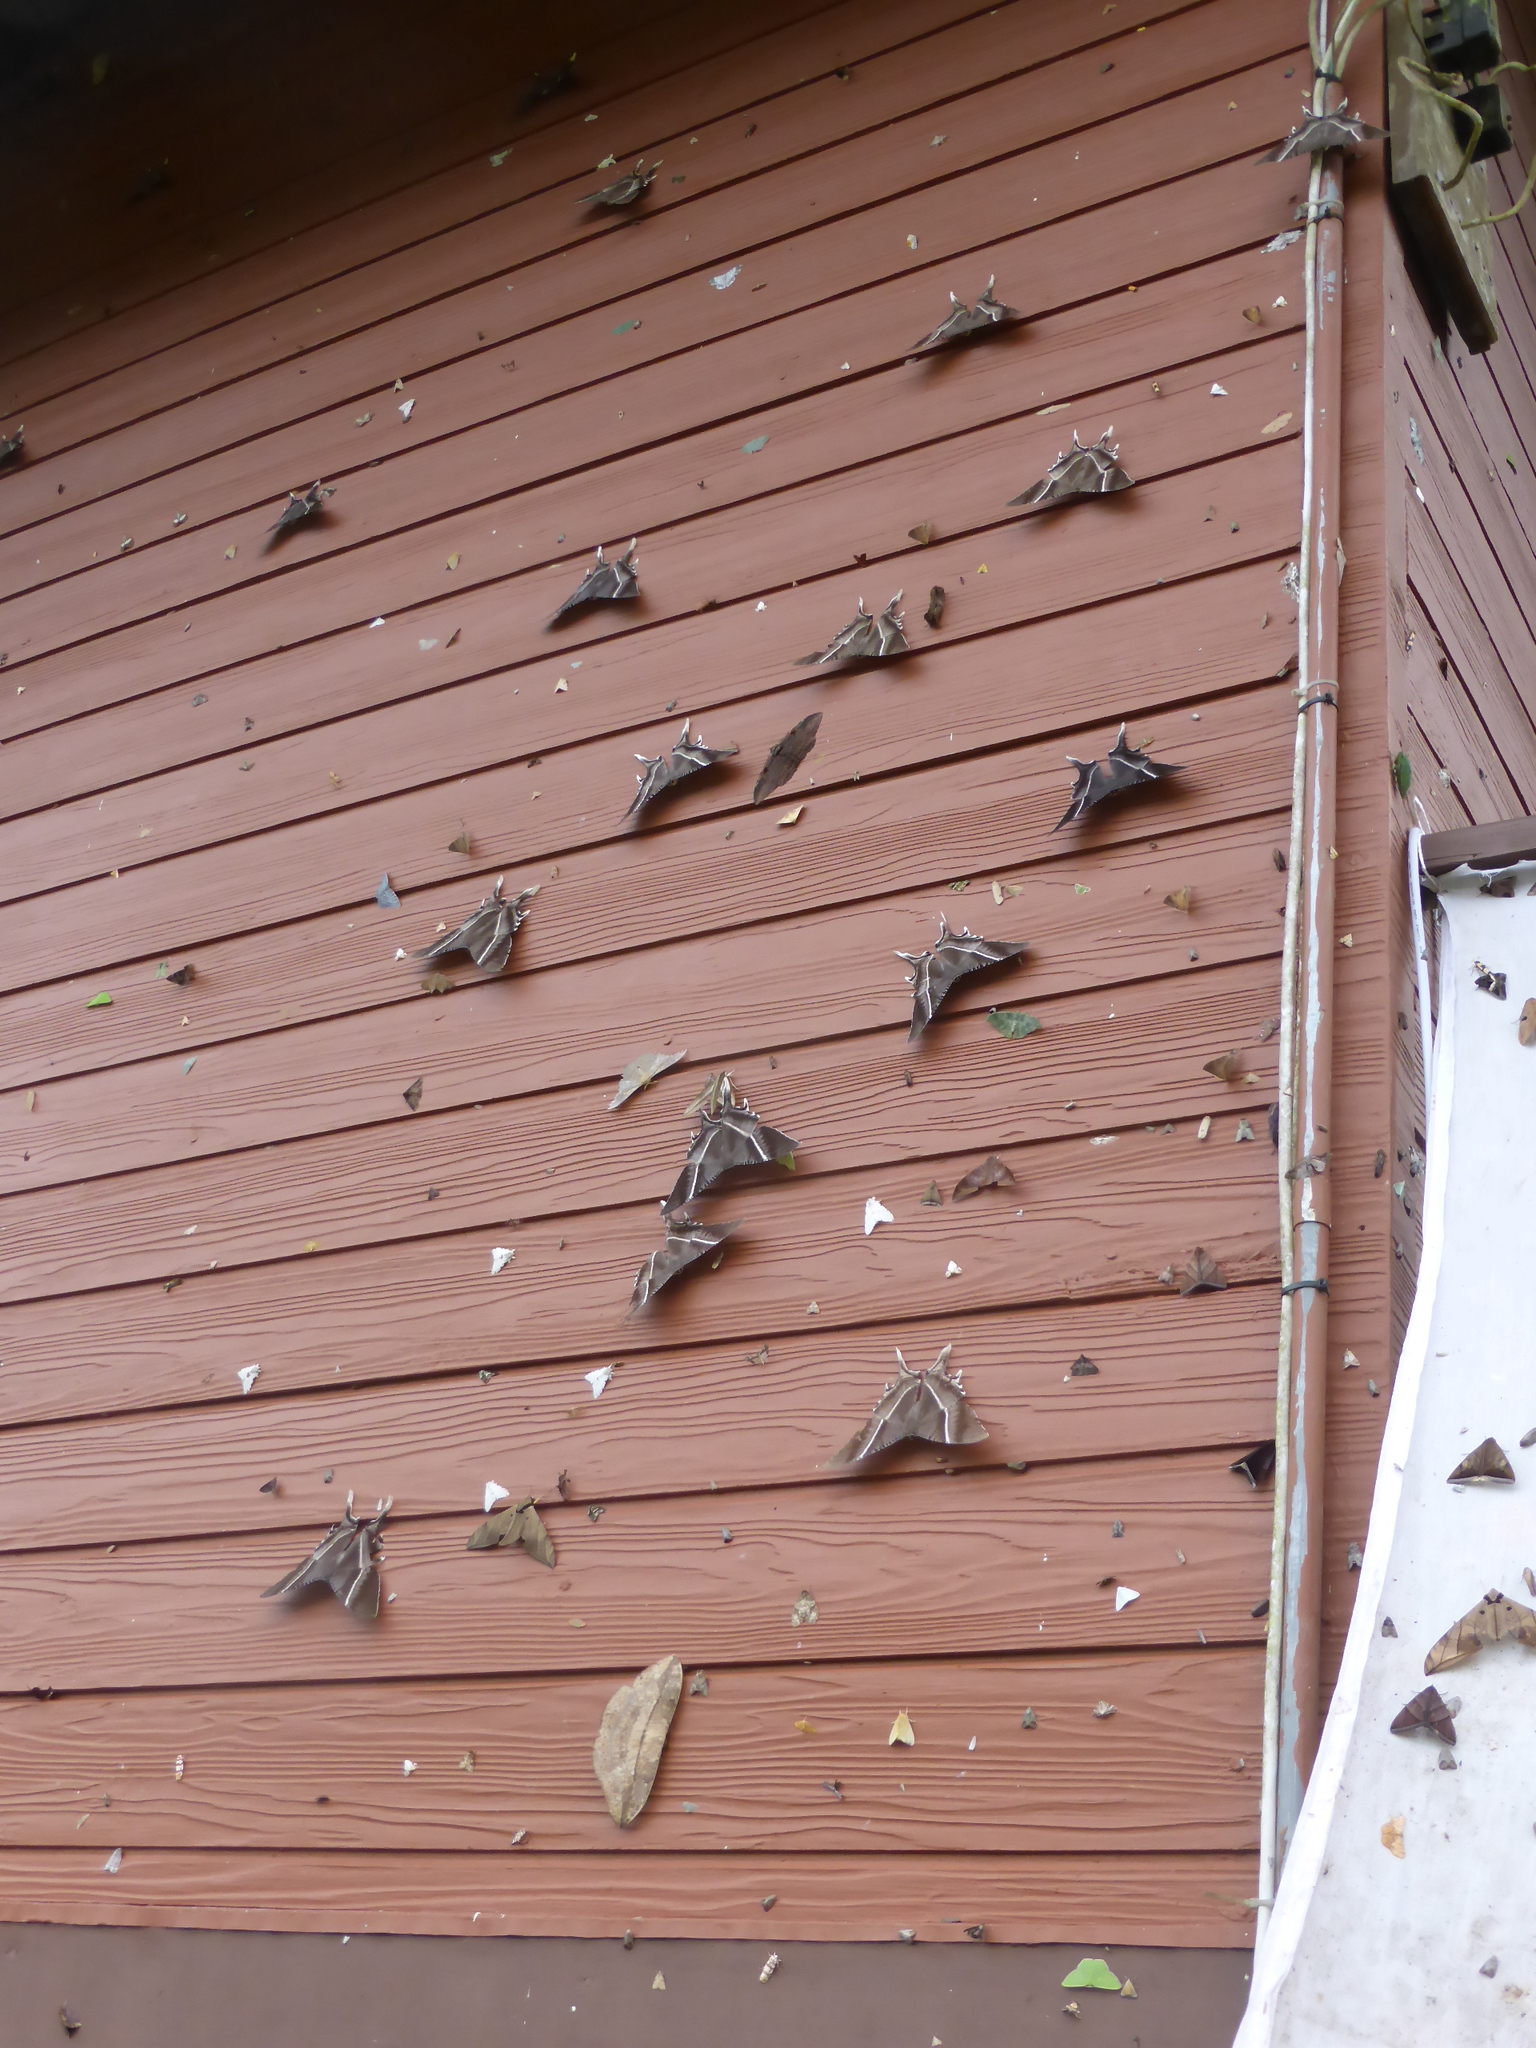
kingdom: Animalia
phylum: Arthropoda
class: Insecta
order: Lepidoptera
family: Uraniidae
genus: Lyssa
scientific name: Lyssa zampa
